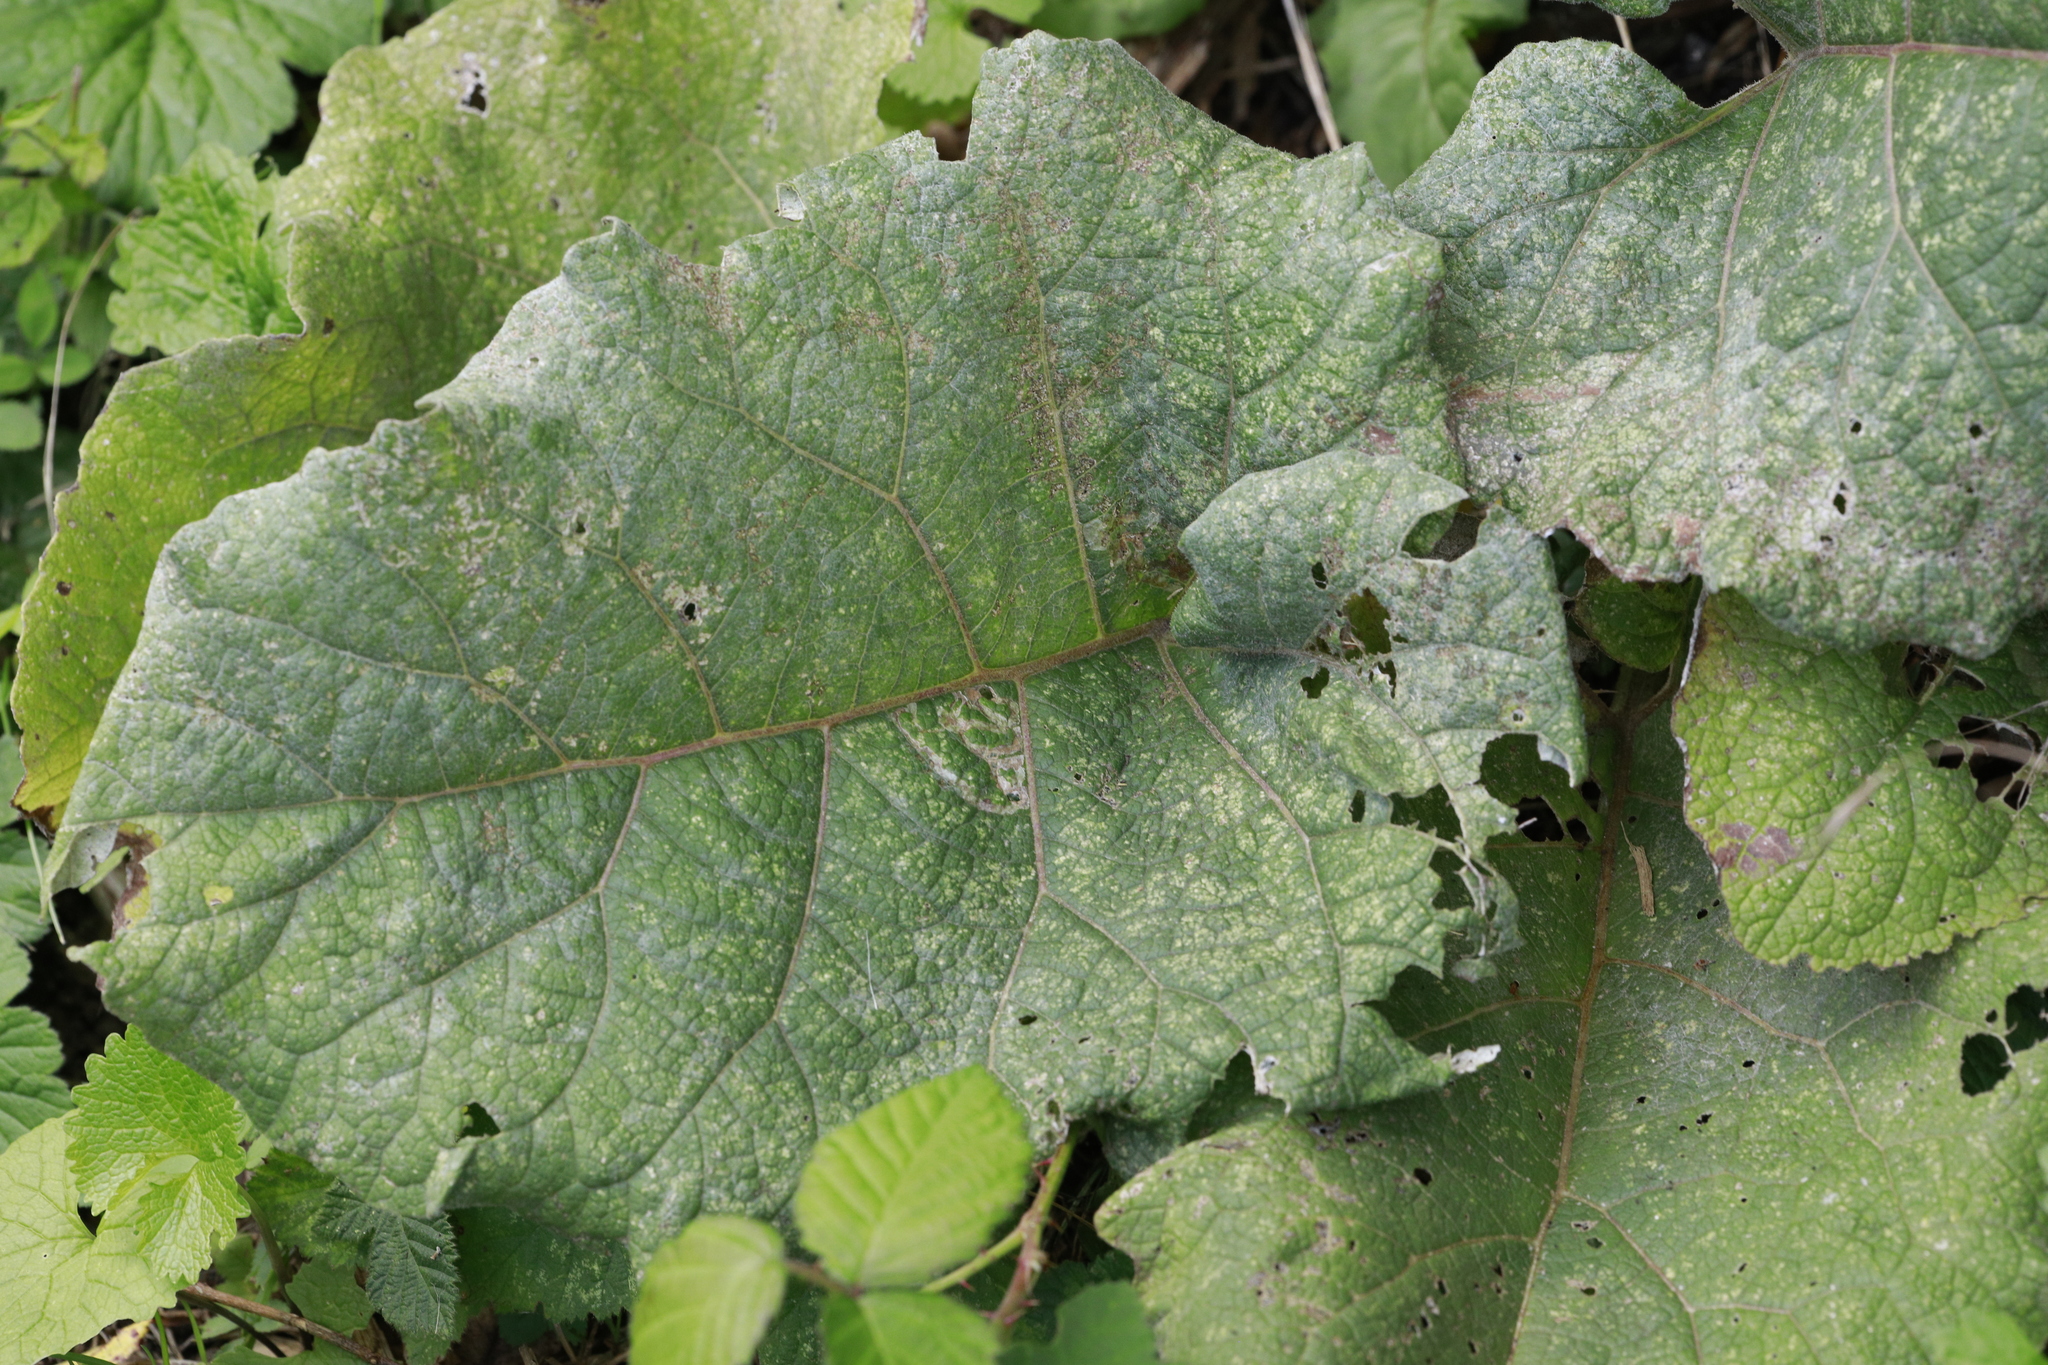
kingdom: Plantae
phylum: Tracheophyta
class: Magnoliopsida
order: Asterales
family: Asteraceae
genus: Arctium
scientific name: Arctium minus
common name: Lesser burdock
